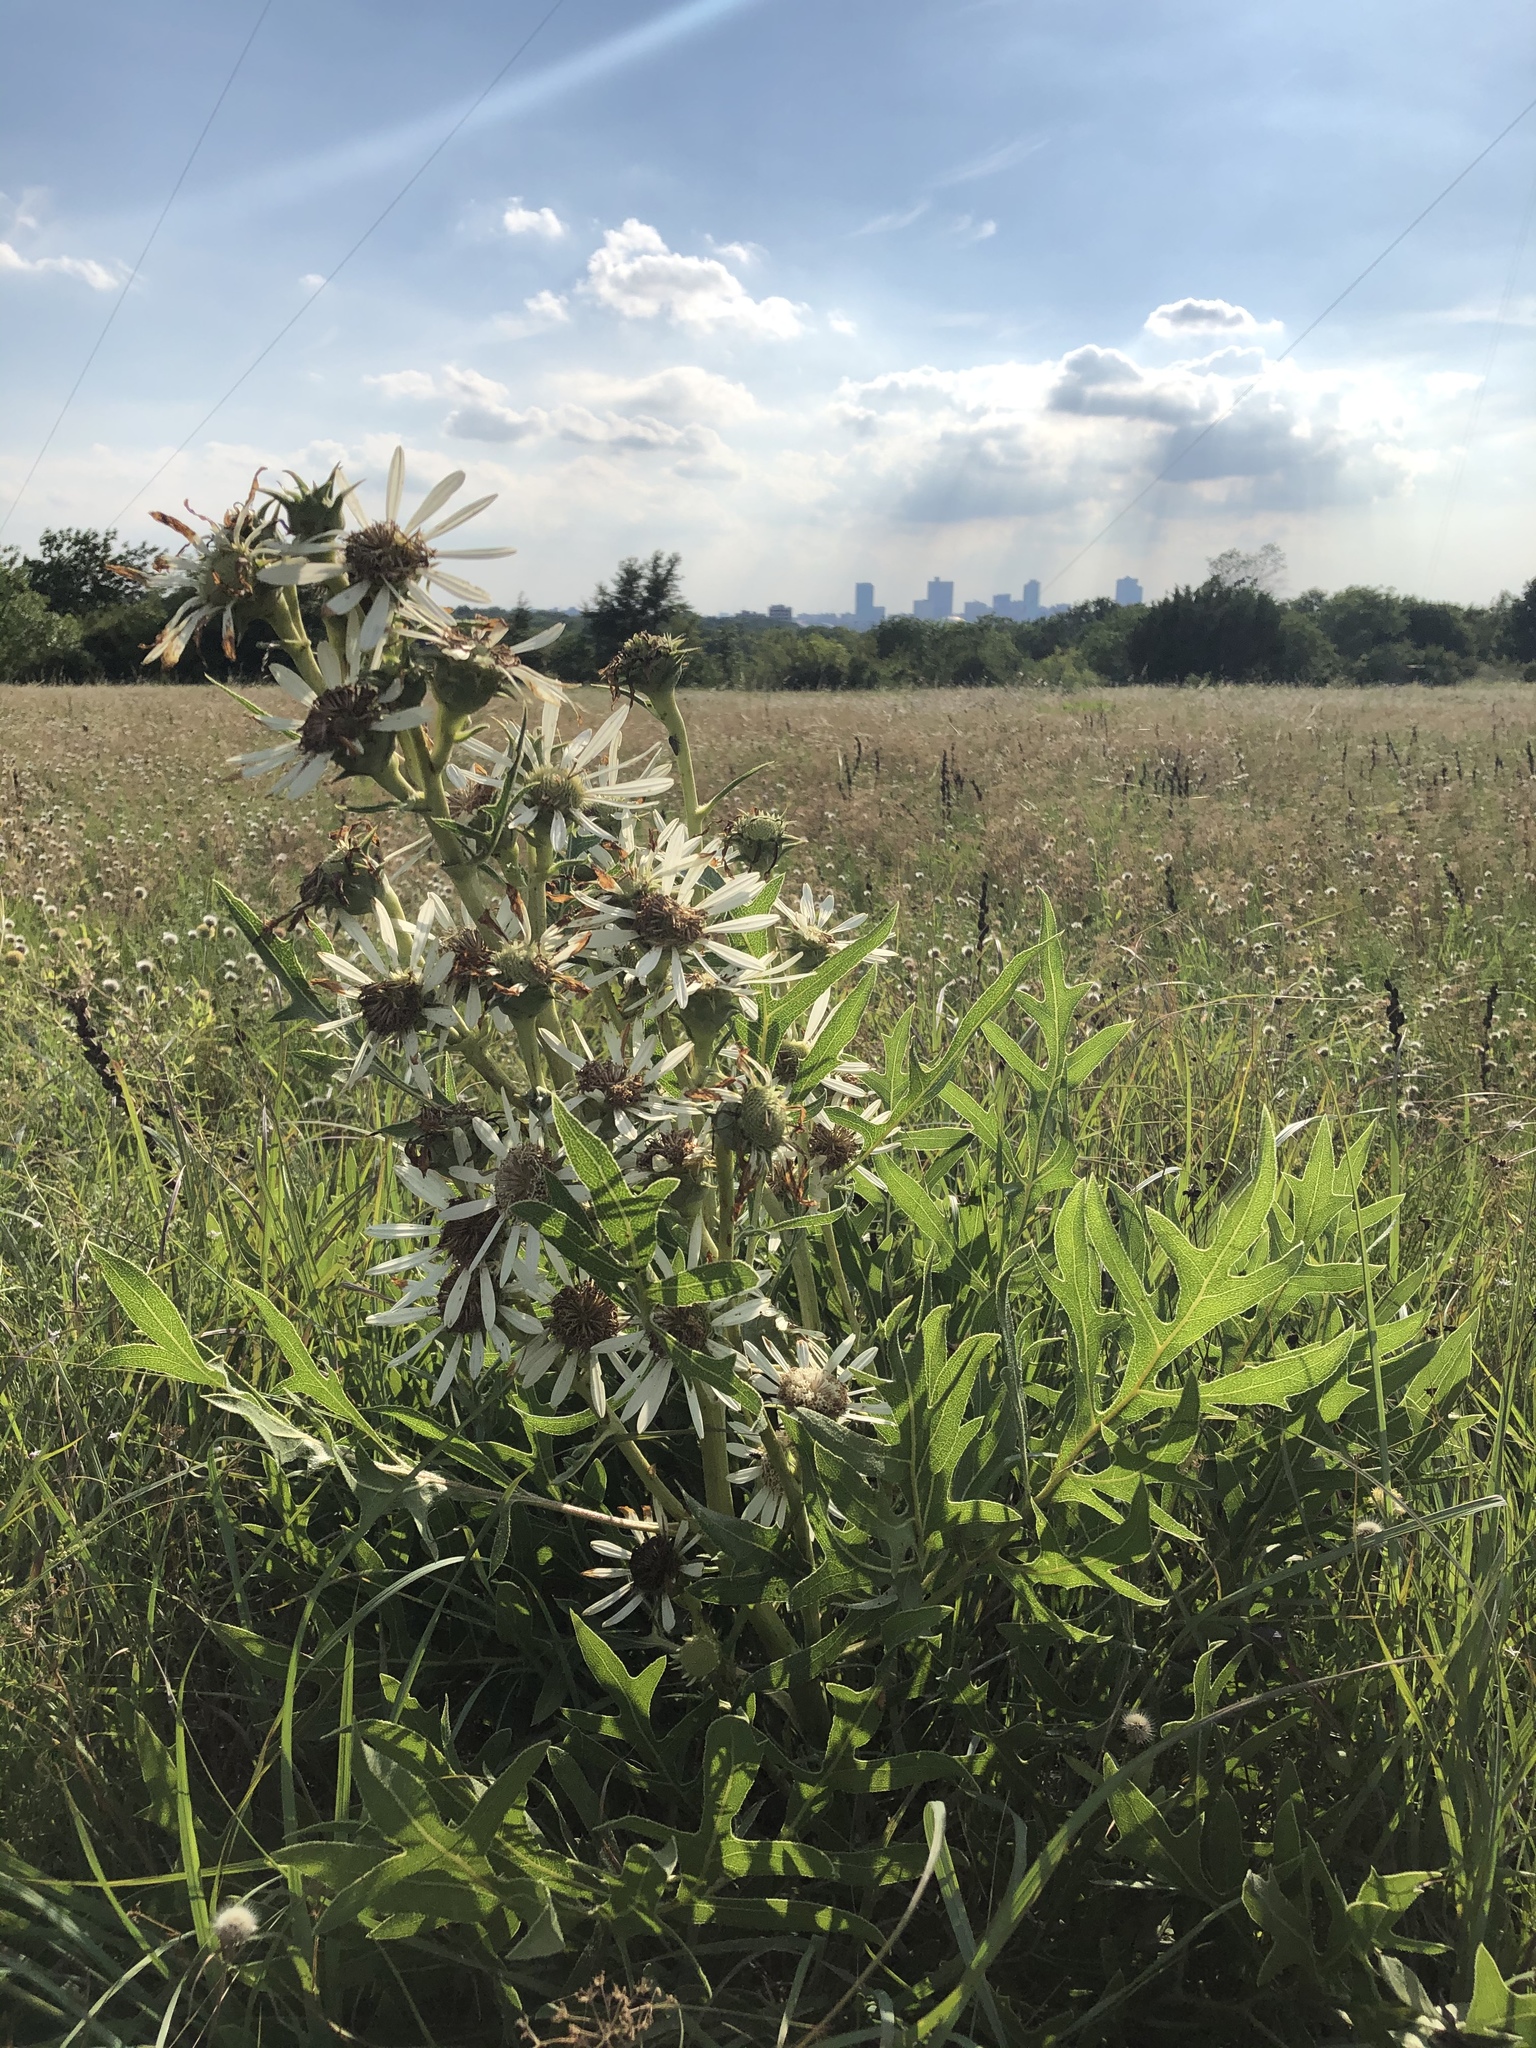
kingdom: Plantae
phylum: Tracheophyta
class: Magnoliopsida
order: Asterales
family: Asteraceae
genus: Silphium
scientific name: Silphium albiflorum
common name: White rosinweed
